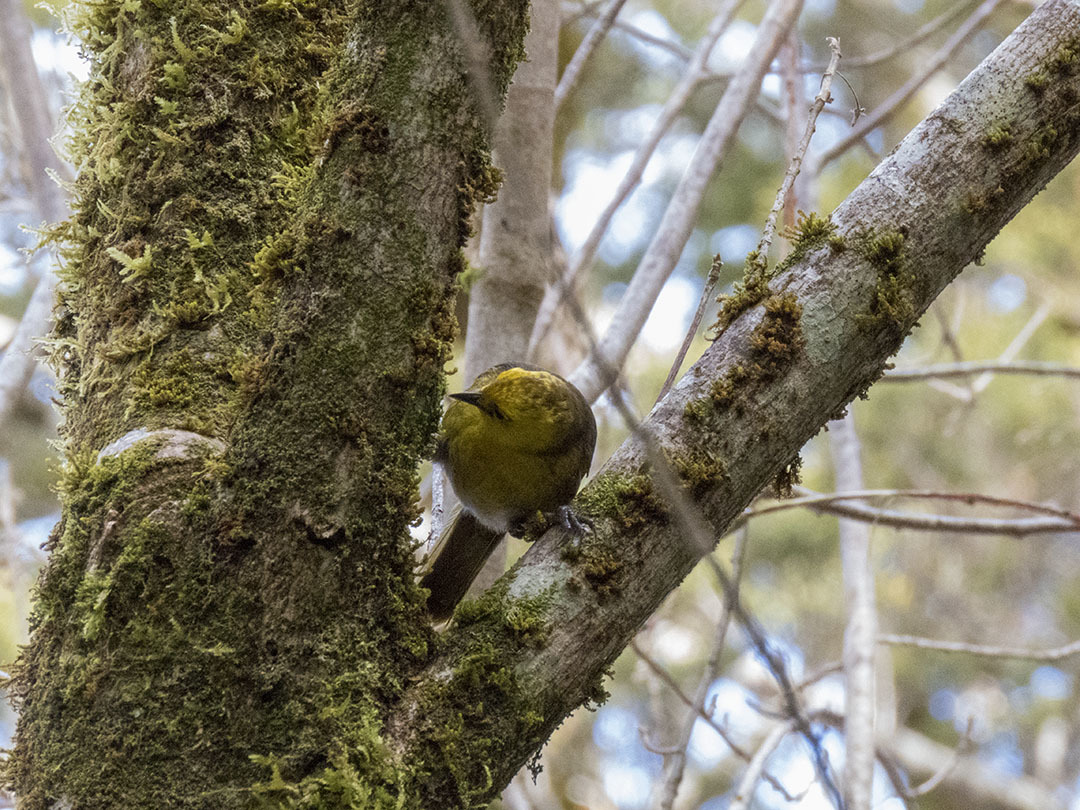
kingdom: Animalia
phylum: Chordata
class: Aves
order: Passeriformes
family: Acanthizidae
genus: Mohoua
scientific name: Mohoua ochrocephala
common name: Yellowhead
